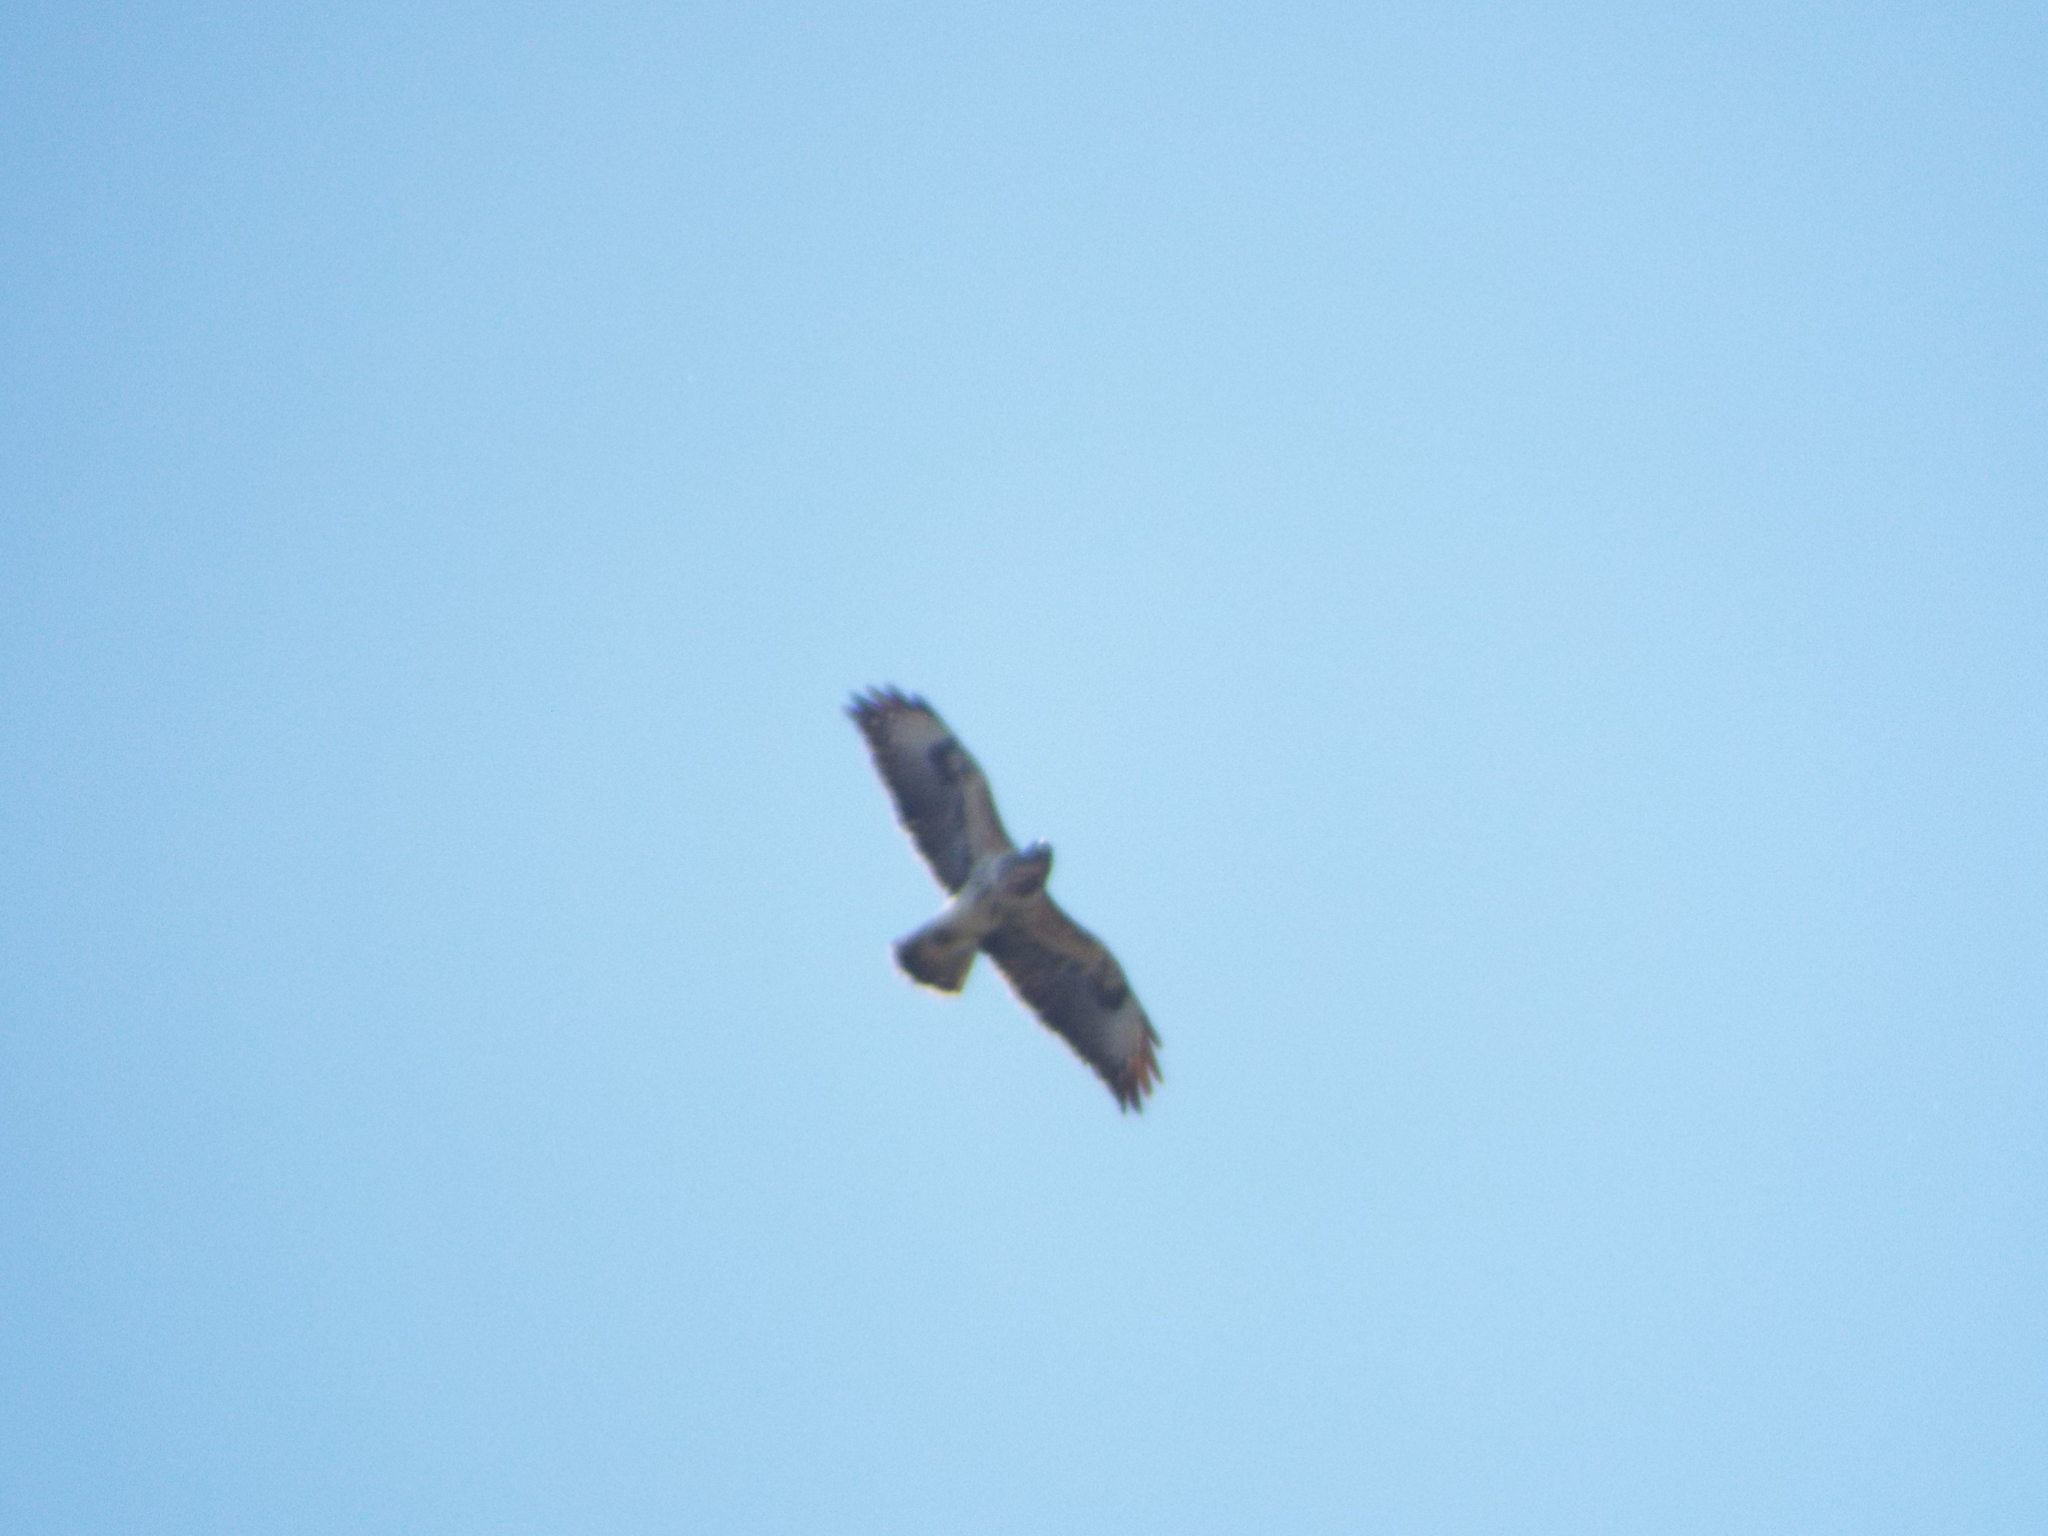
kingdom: Animalia
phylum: Chordata
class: Aves
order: Accipitriformes
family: Accipitridae
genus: Buteo
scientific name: Buteo buteo
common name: Common buzzard
